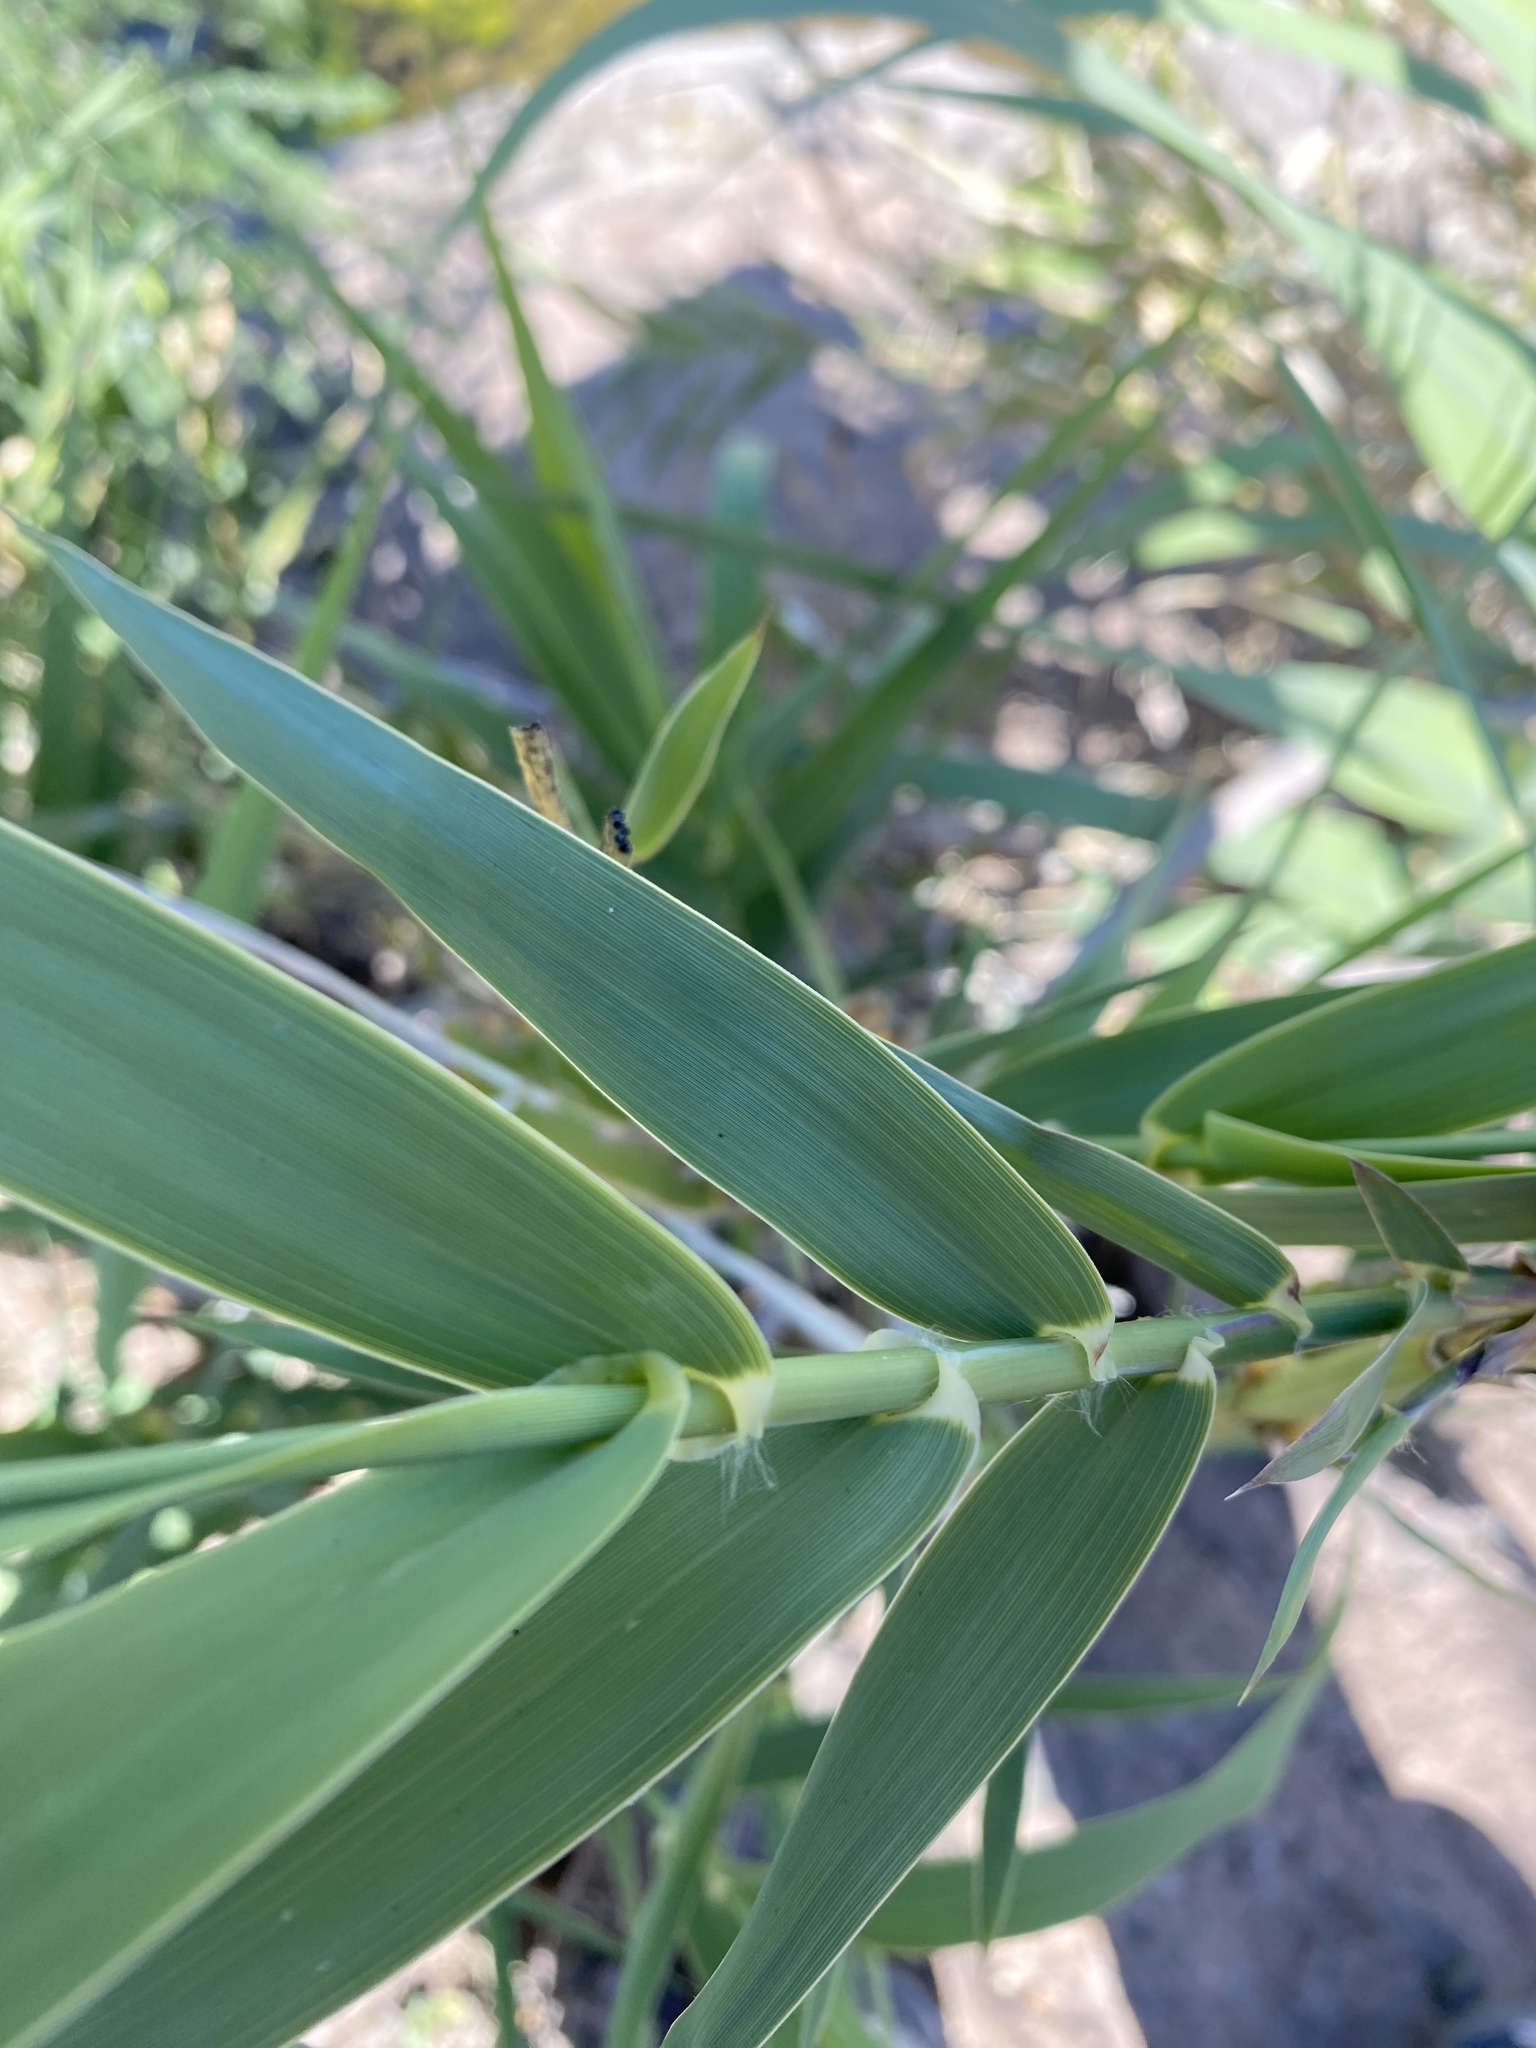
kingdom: Plantae
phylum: Tracheophyta
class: Liliopsida
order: Poales
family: Poaceae
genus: Arundo
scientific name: Arundo donax
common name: Giant reed
